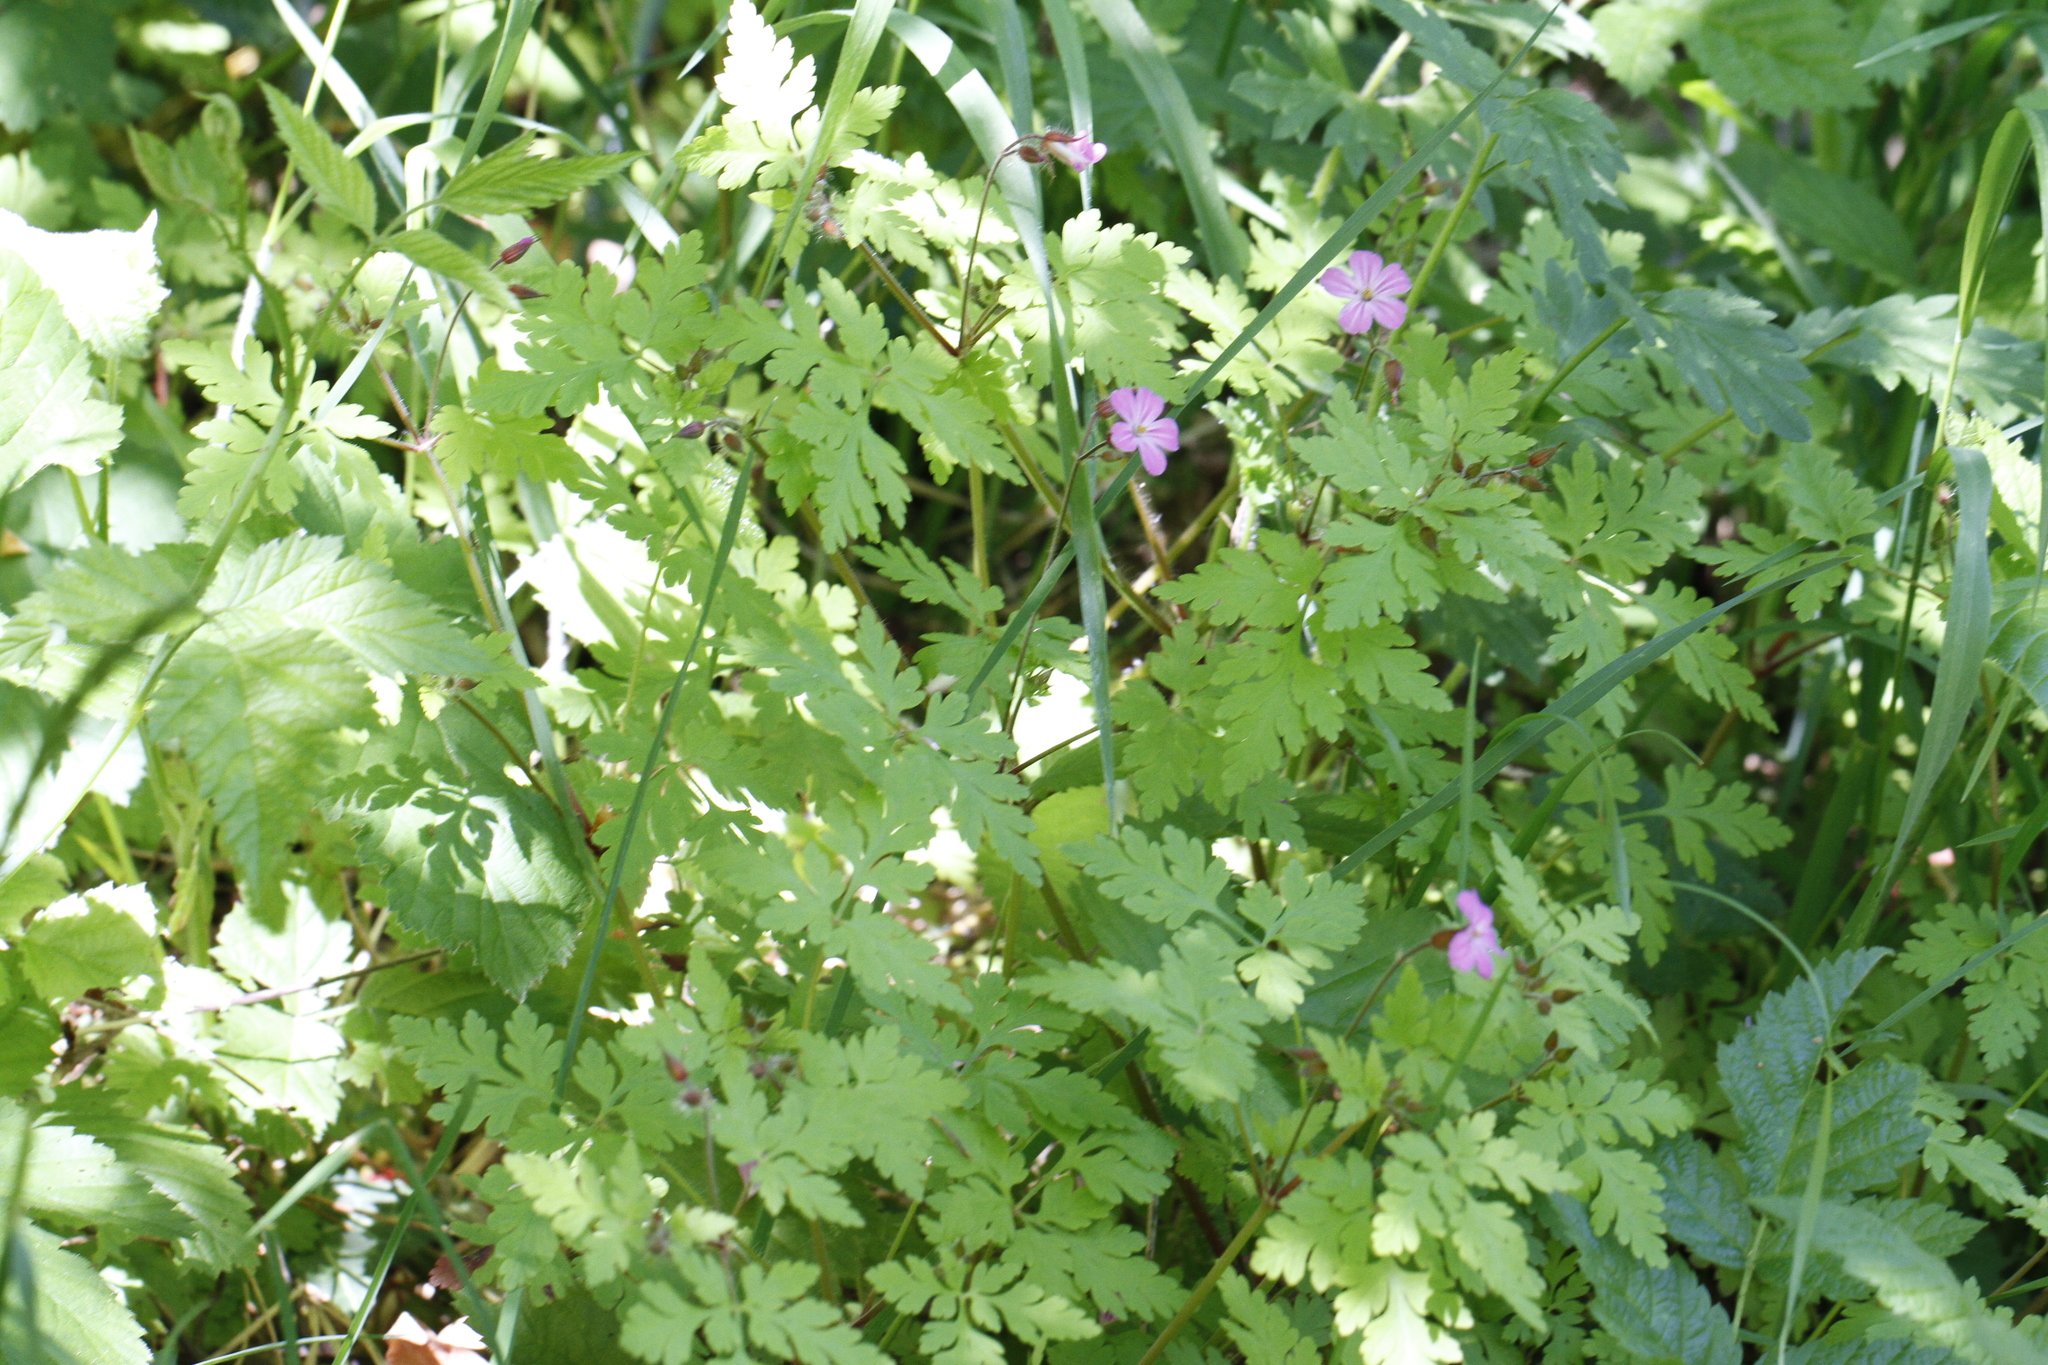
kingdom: Plantae
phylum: Tracheophyta
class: Magnoliopsida
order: Geraniales
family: Geraniaceae
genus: Geranium
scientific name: Geranium robertianum
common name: Herb-robert
